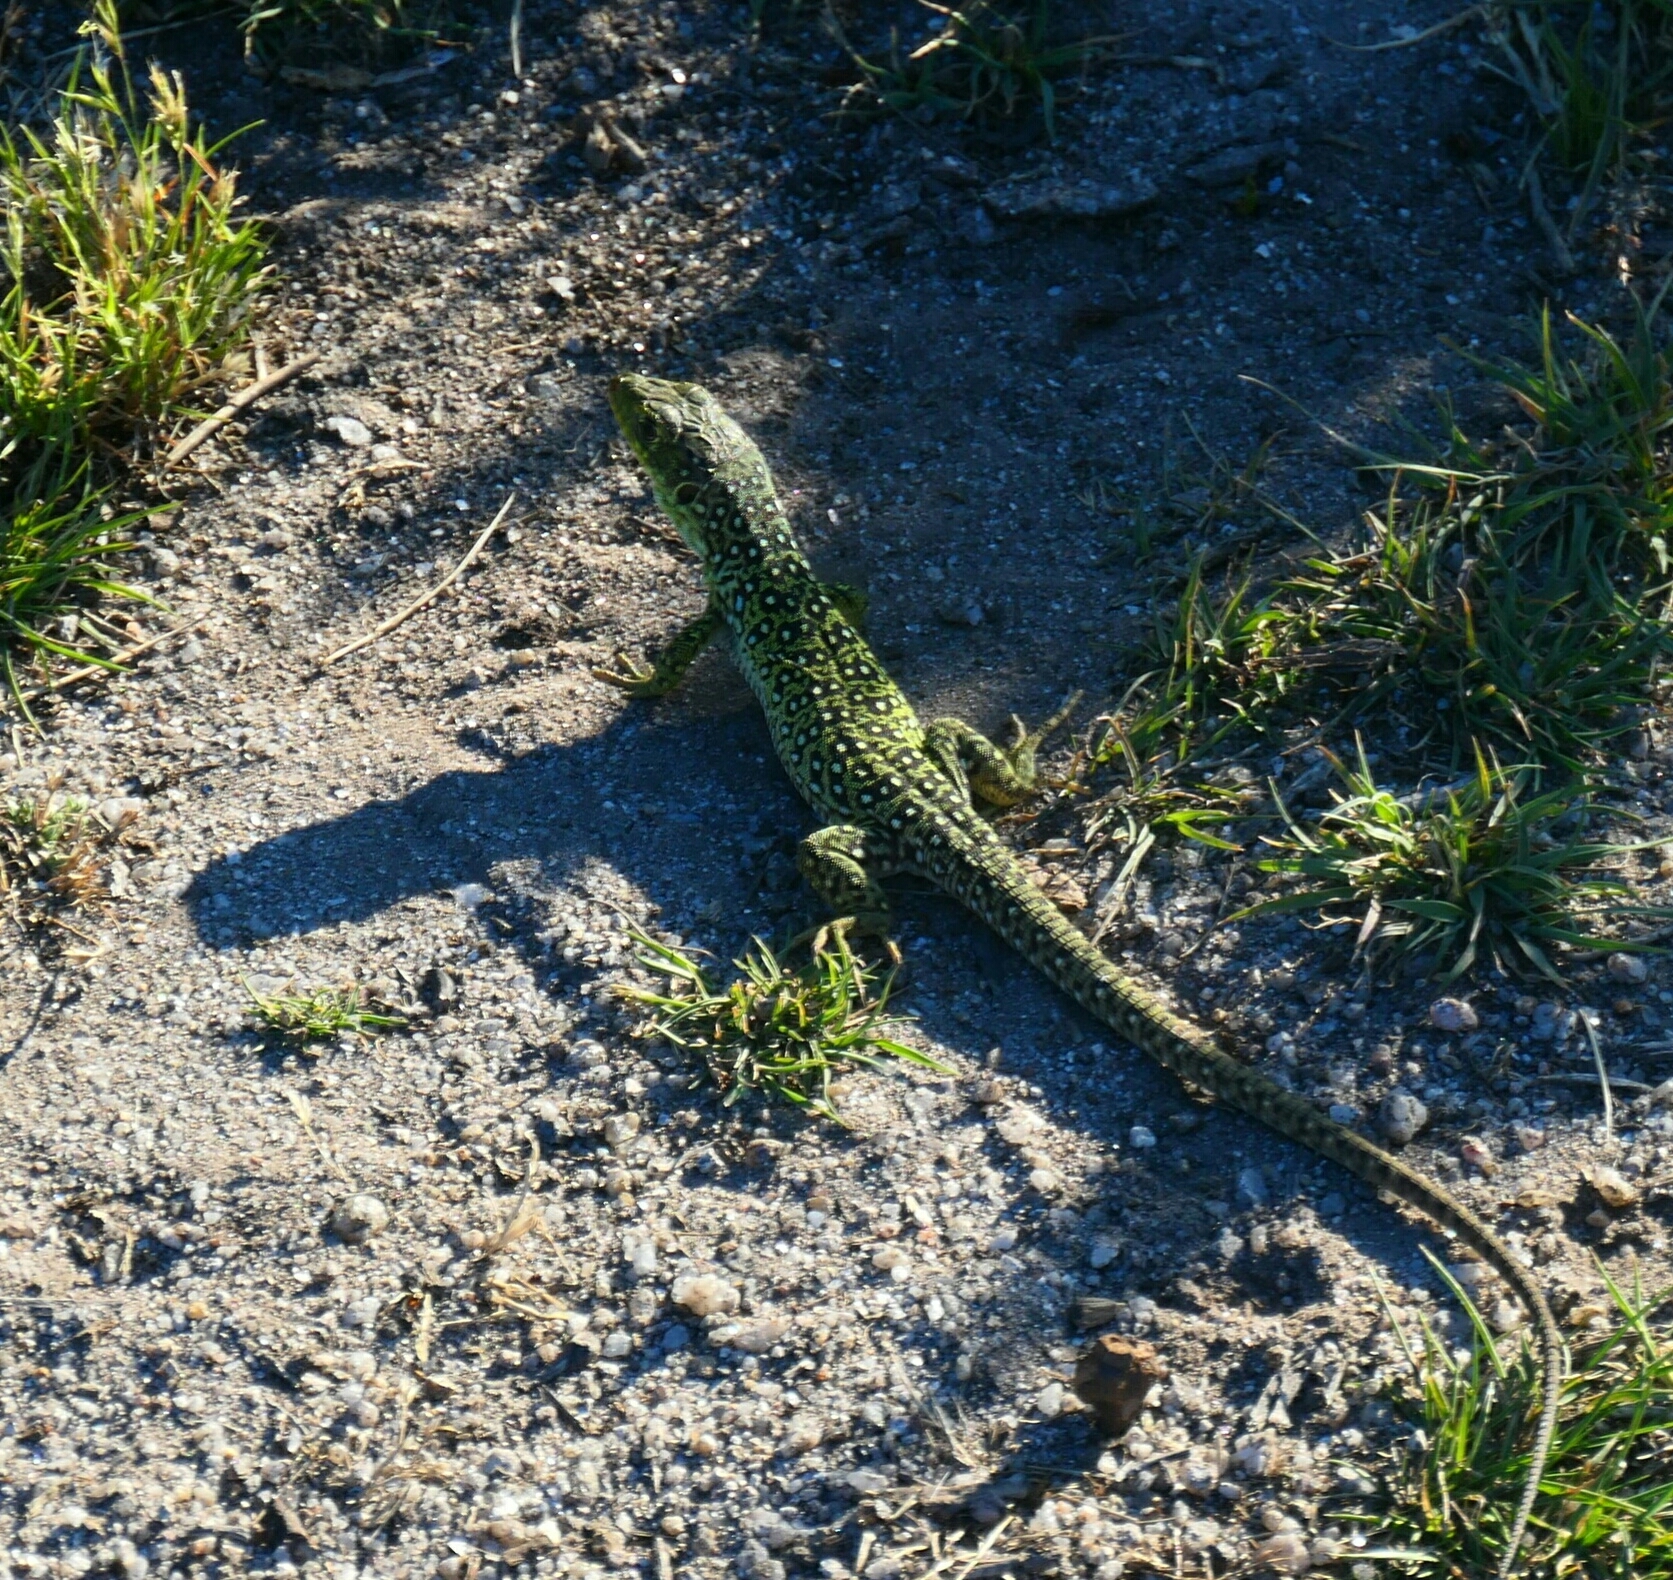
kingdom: Animalia
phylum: Chordata
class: Squamata
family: Lacertidae
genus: Timon
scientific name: Timon lepidus
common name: Ocellated lizard
